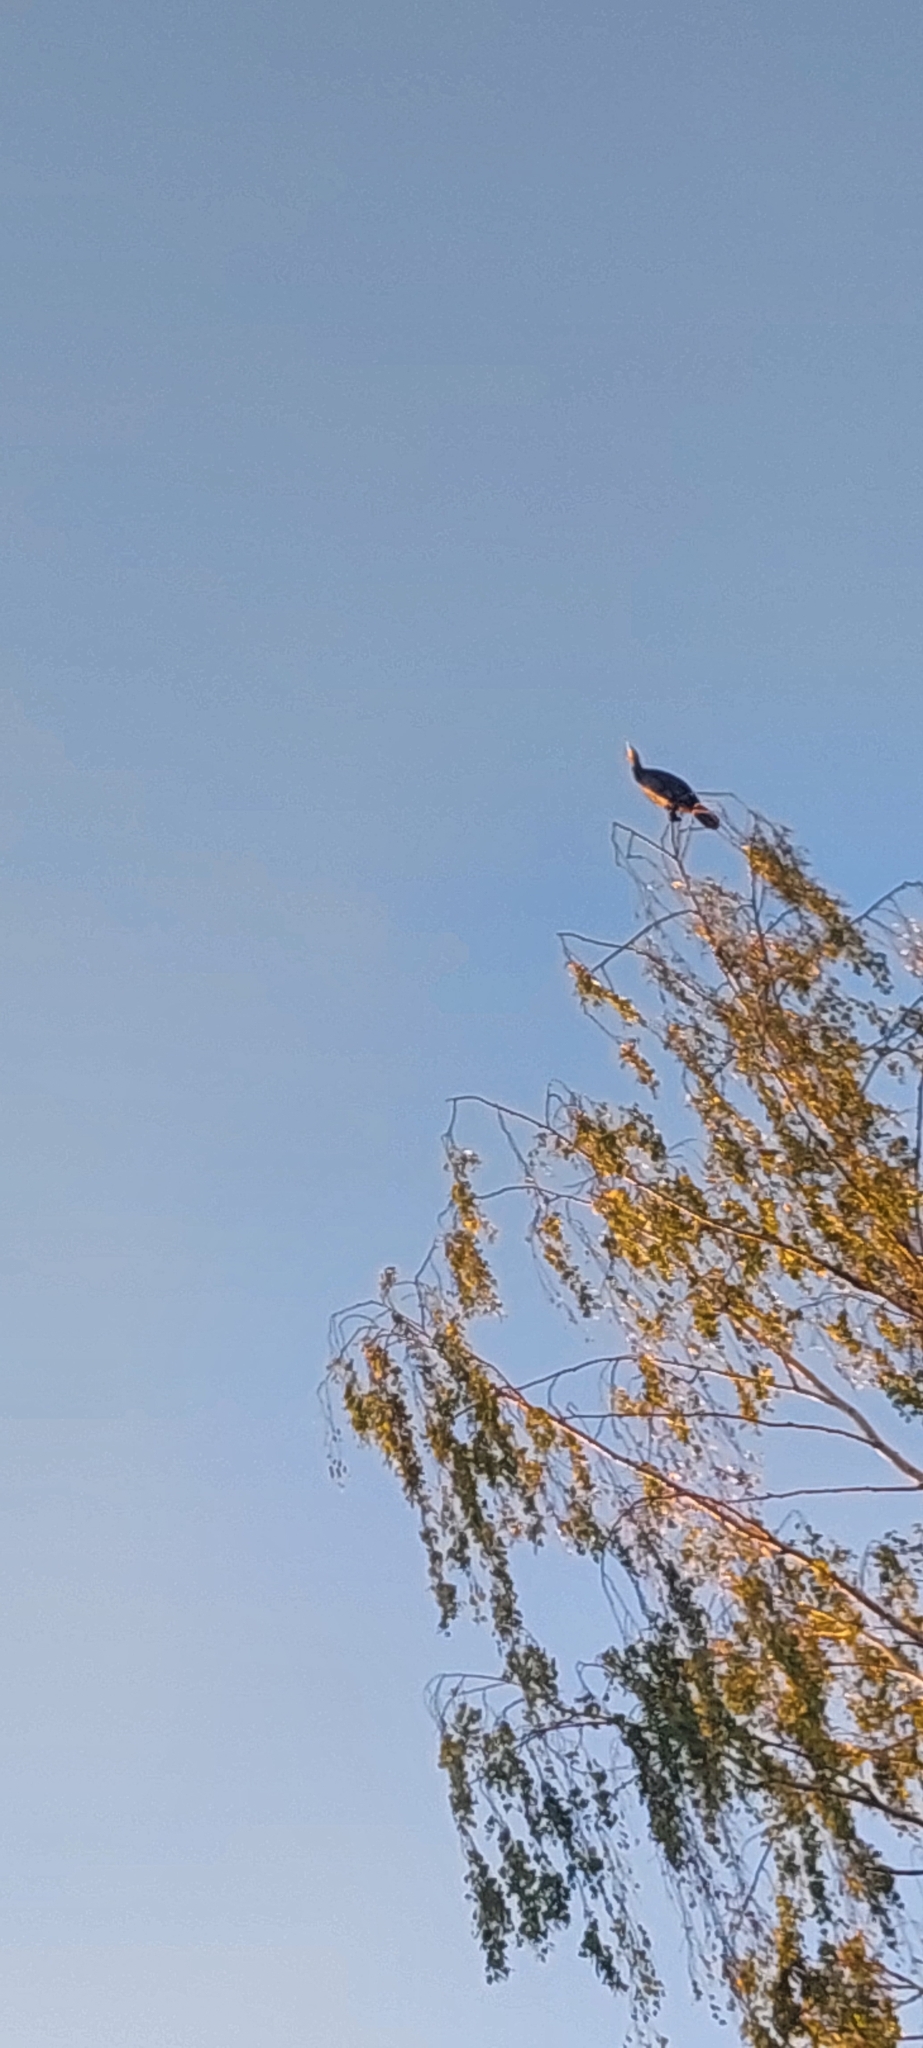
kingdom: Animalia
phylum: Chordata
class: Aves
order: Suliformes
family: Phalacrocoracidae
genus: Phalacrocorax
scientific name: Phalacrocorax carbo
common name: Great cormorant
